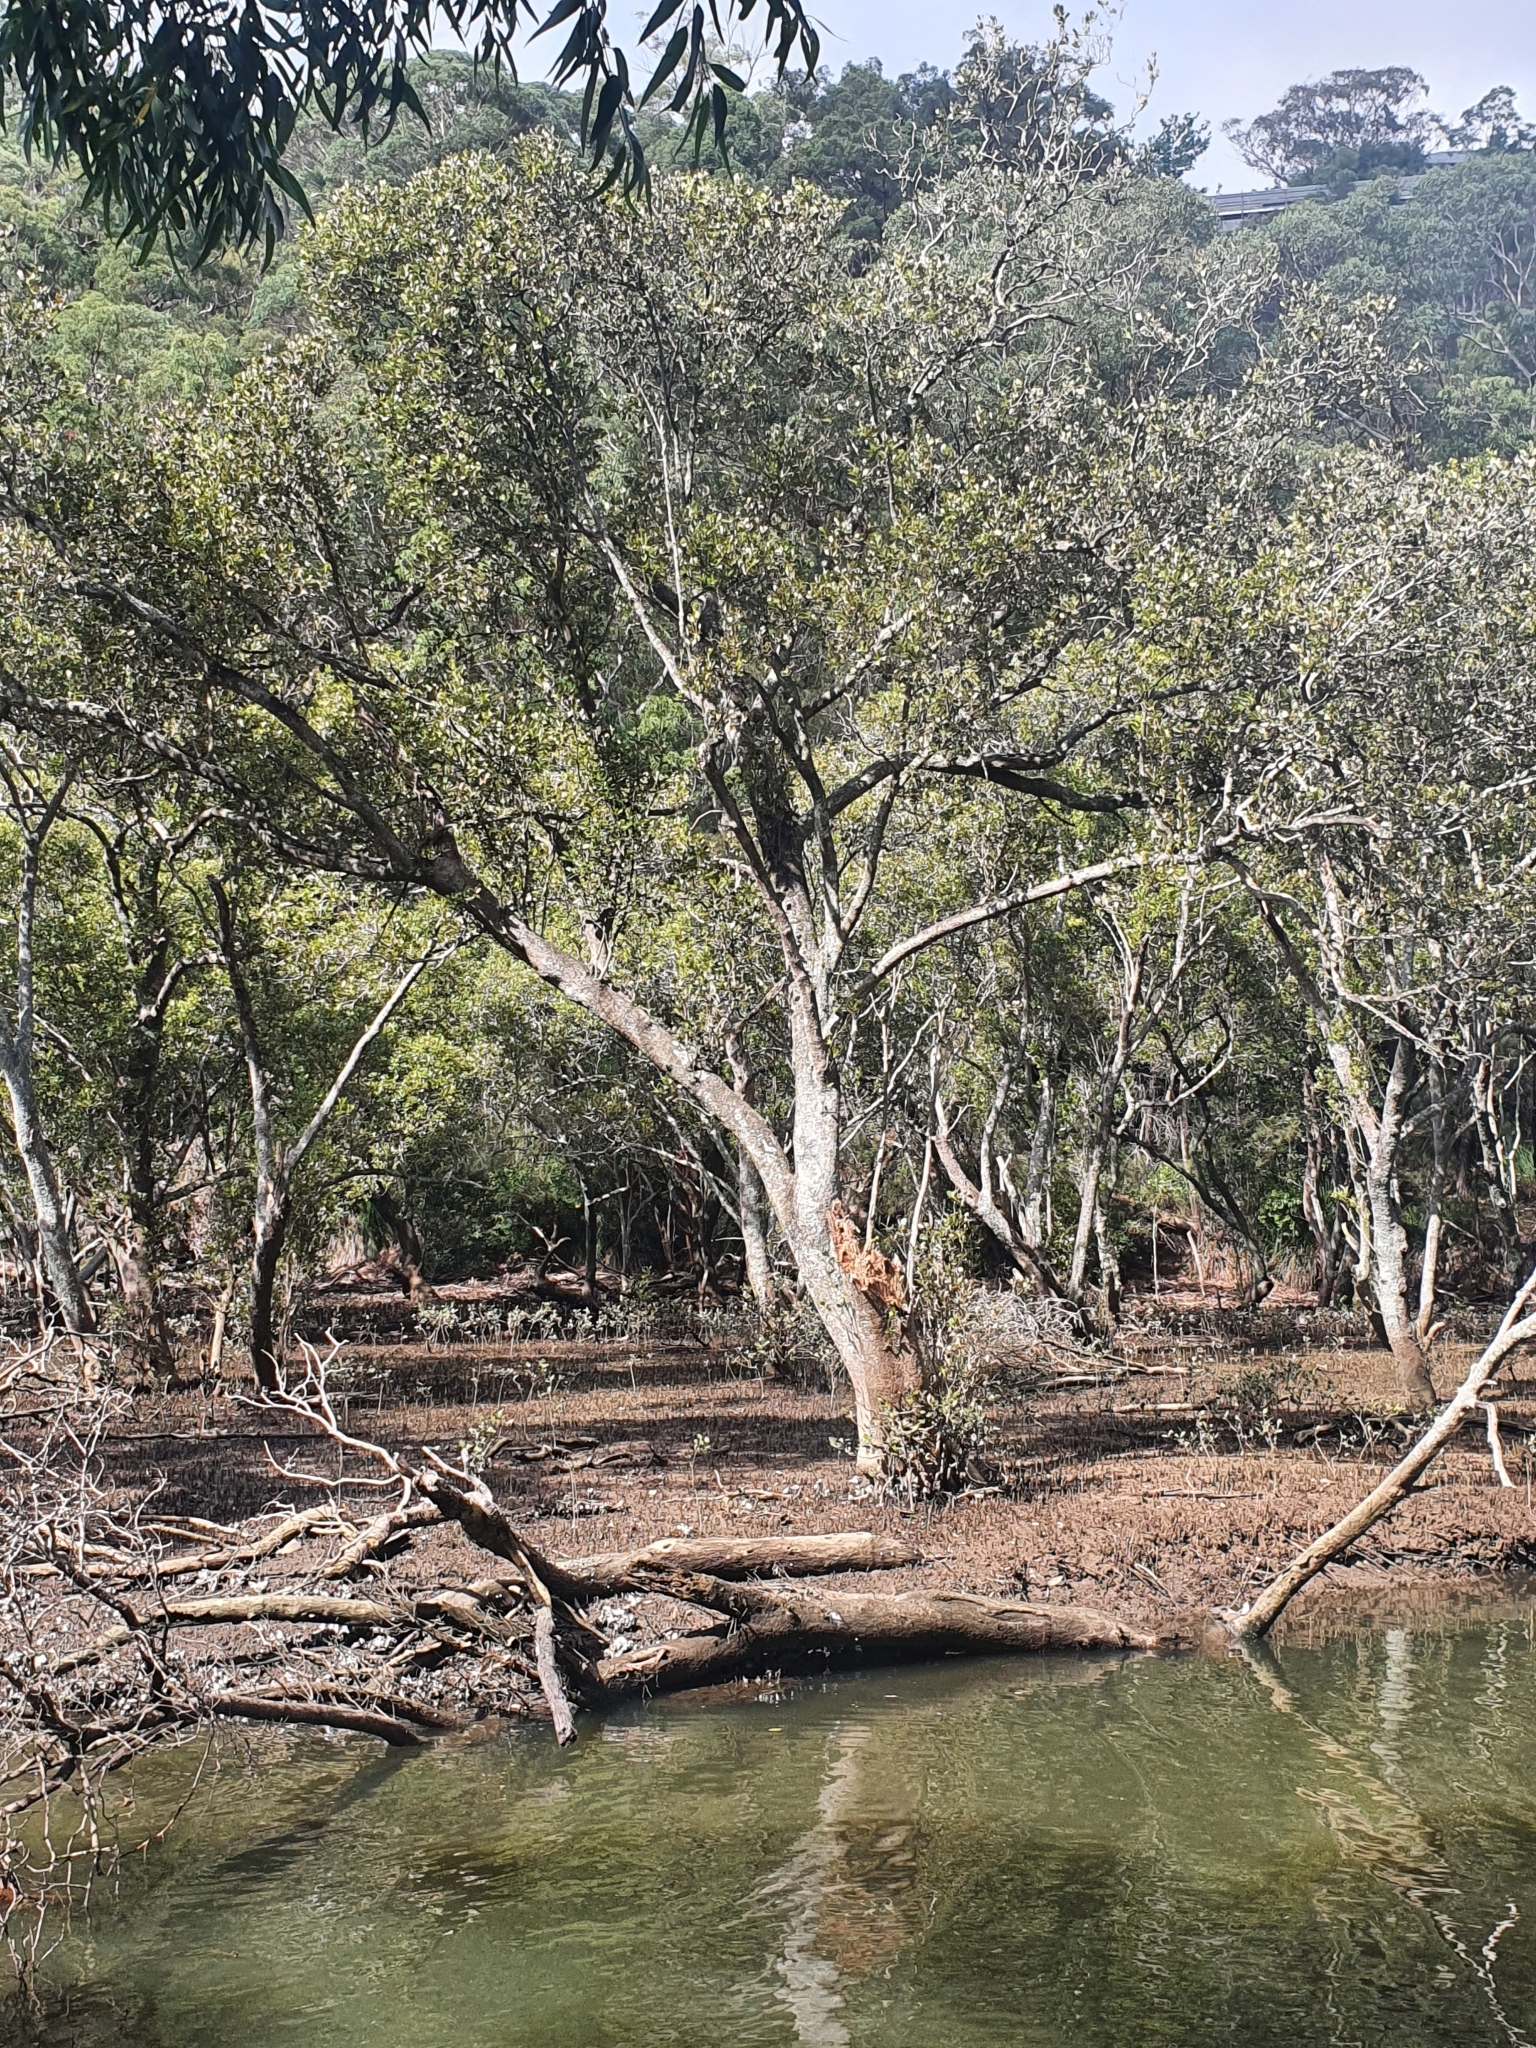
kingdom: Plantae
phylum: Tracheophyta
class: Magnoliopsida
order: Lamiales
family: Acanthaceae
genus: Avicennia
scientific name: Avicennia marina
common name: Gray mangrove
